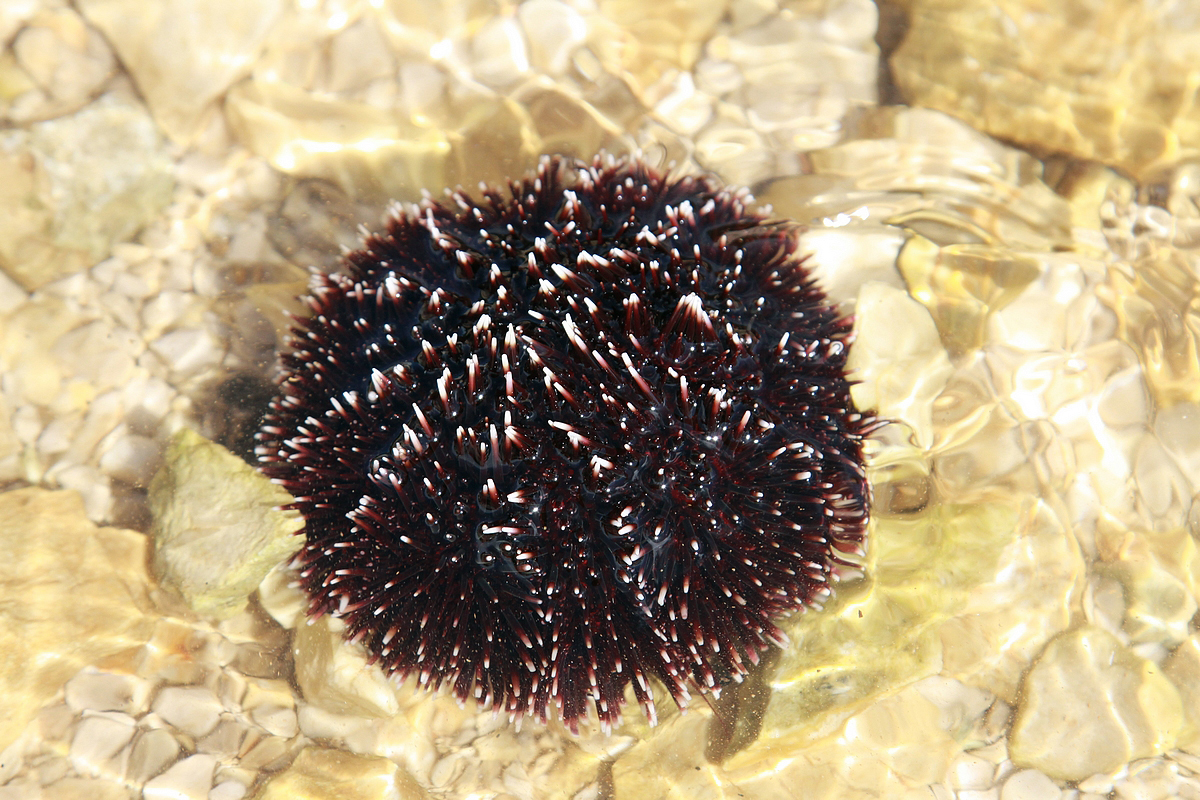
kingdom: Animalia
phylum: Echinodermata
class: Echinoidea
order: Camarodonta
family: Toxopneustidae
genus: Sphaerechinus
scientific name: Sphaerechinus granularis
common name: Violet sea urchin
